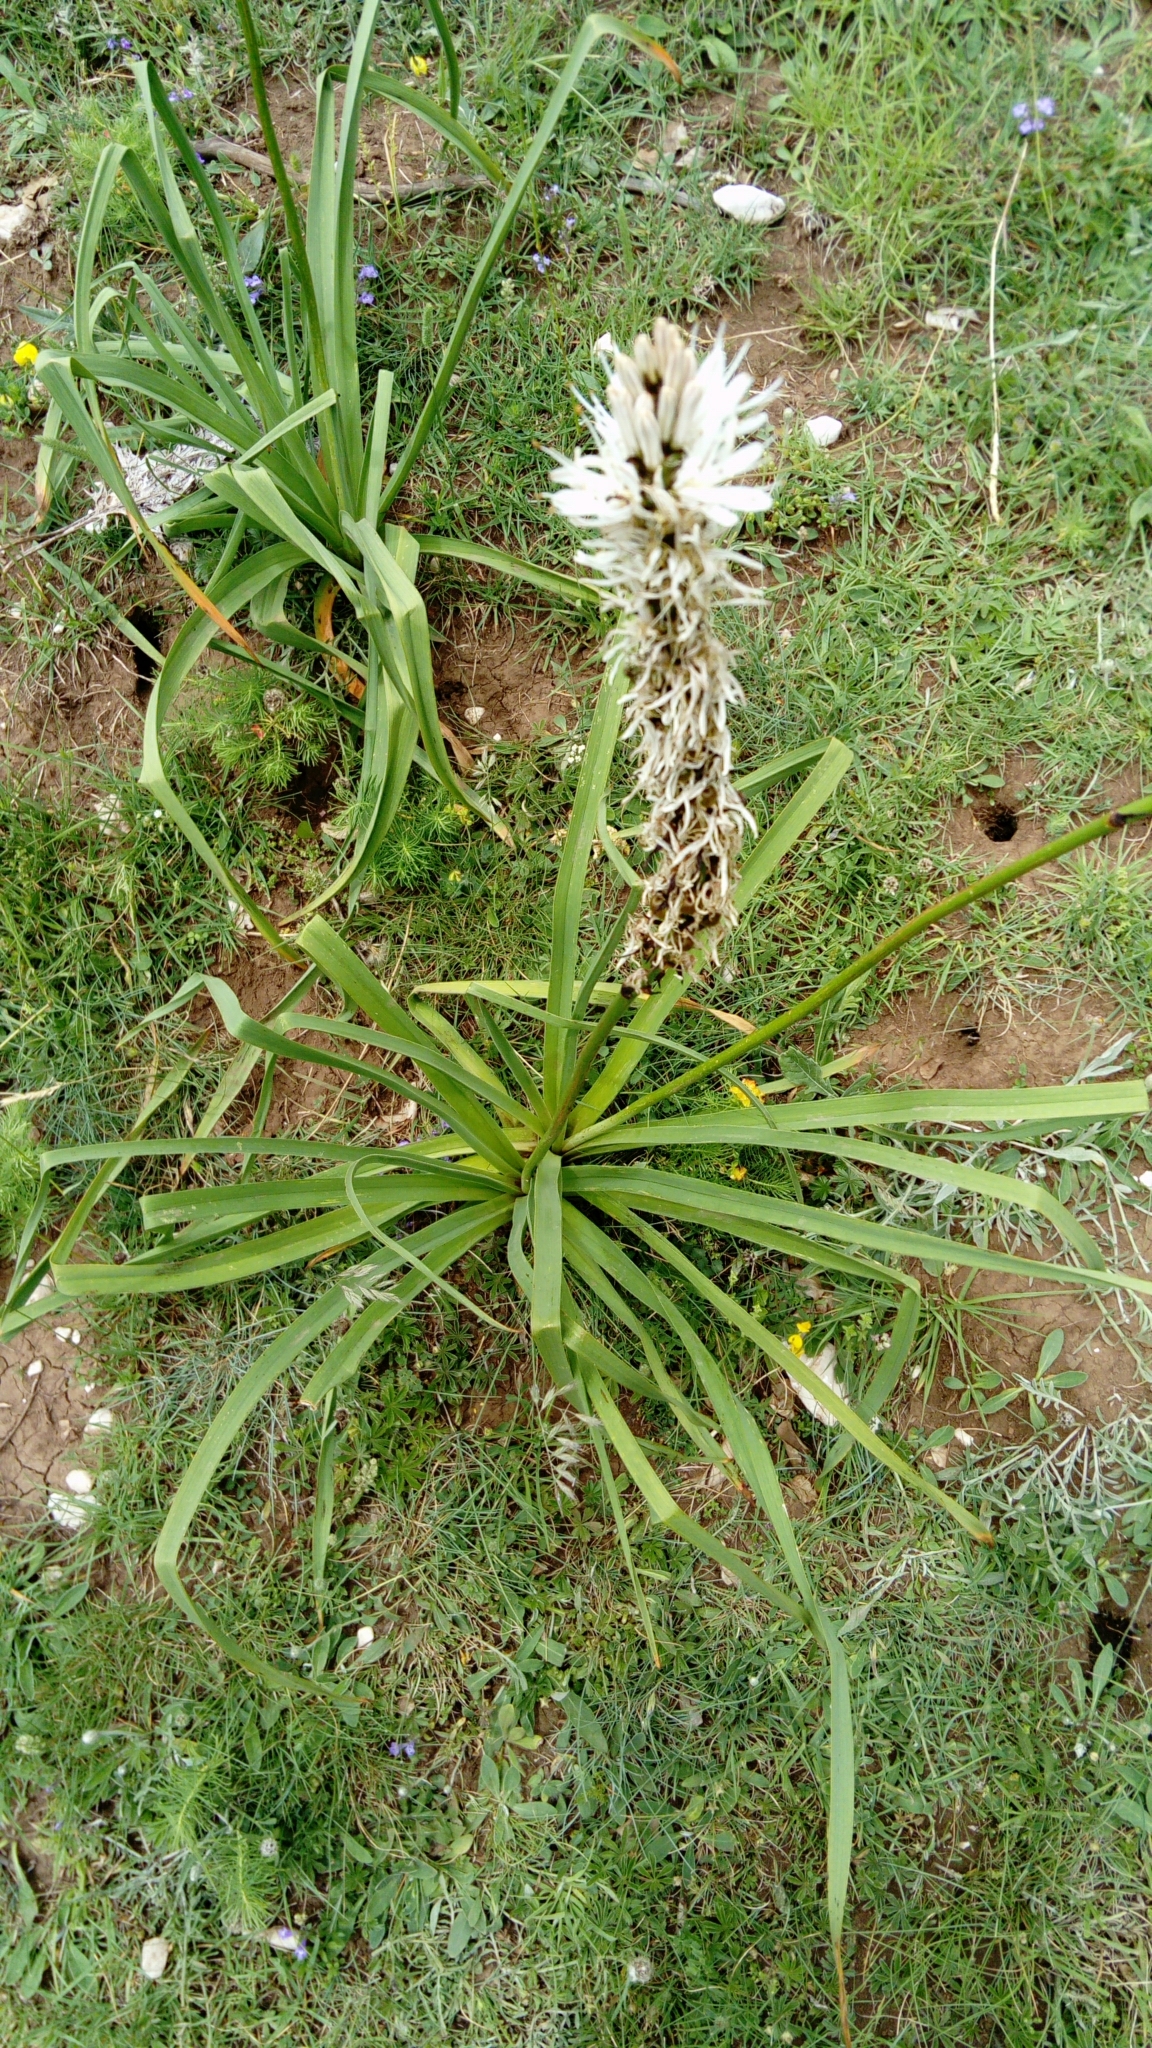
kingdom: Plantae
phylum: Tracheophyta
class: Liliopsida
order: Asparagales
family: Asphodelaceae
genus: Asphodelus
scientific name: Asphodelus macrocarpus
